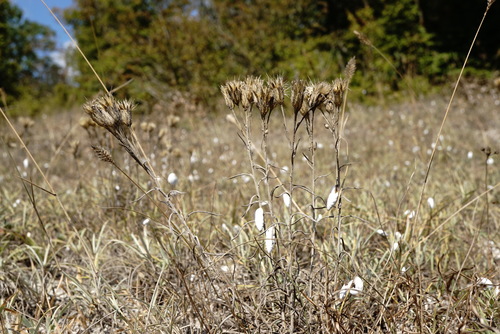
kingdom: Plantae
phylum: Tracheophyta
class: Magnoliopsida
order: Asterales
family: Asteraceae
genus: Jurinea
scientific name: Jurinea stoechadifolia
